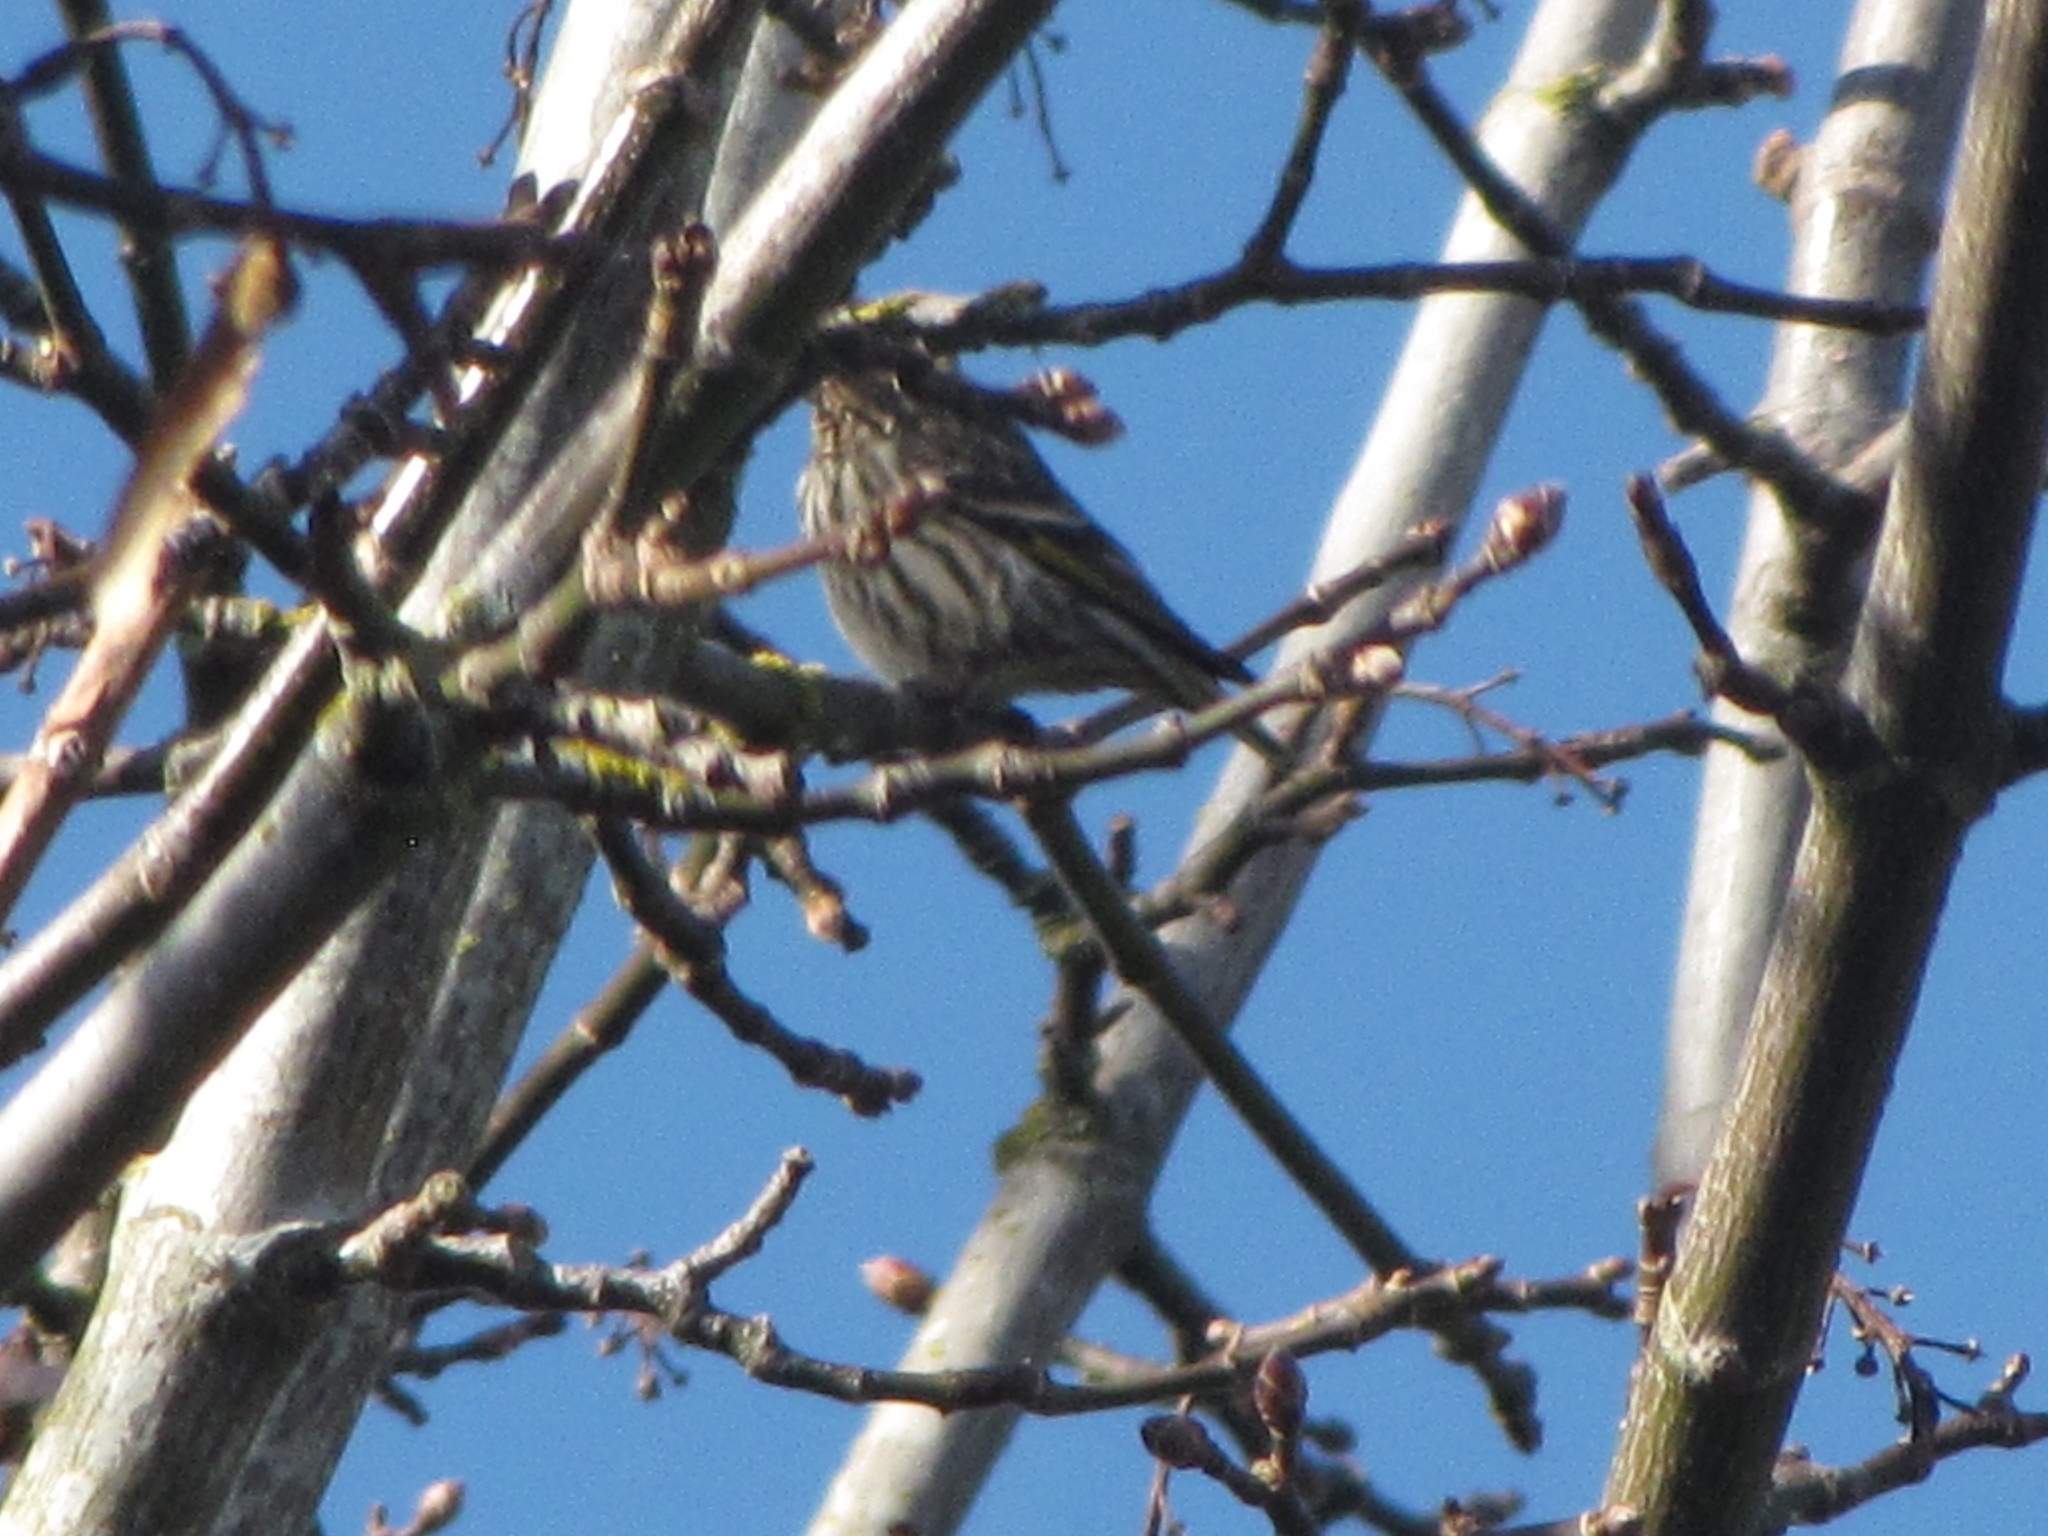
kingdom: Animalia
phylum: Chordata
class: Aves
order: Passeriformes
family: Fringillidae
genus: Spinus
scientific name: Spinus pinus
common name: Pine siskin
